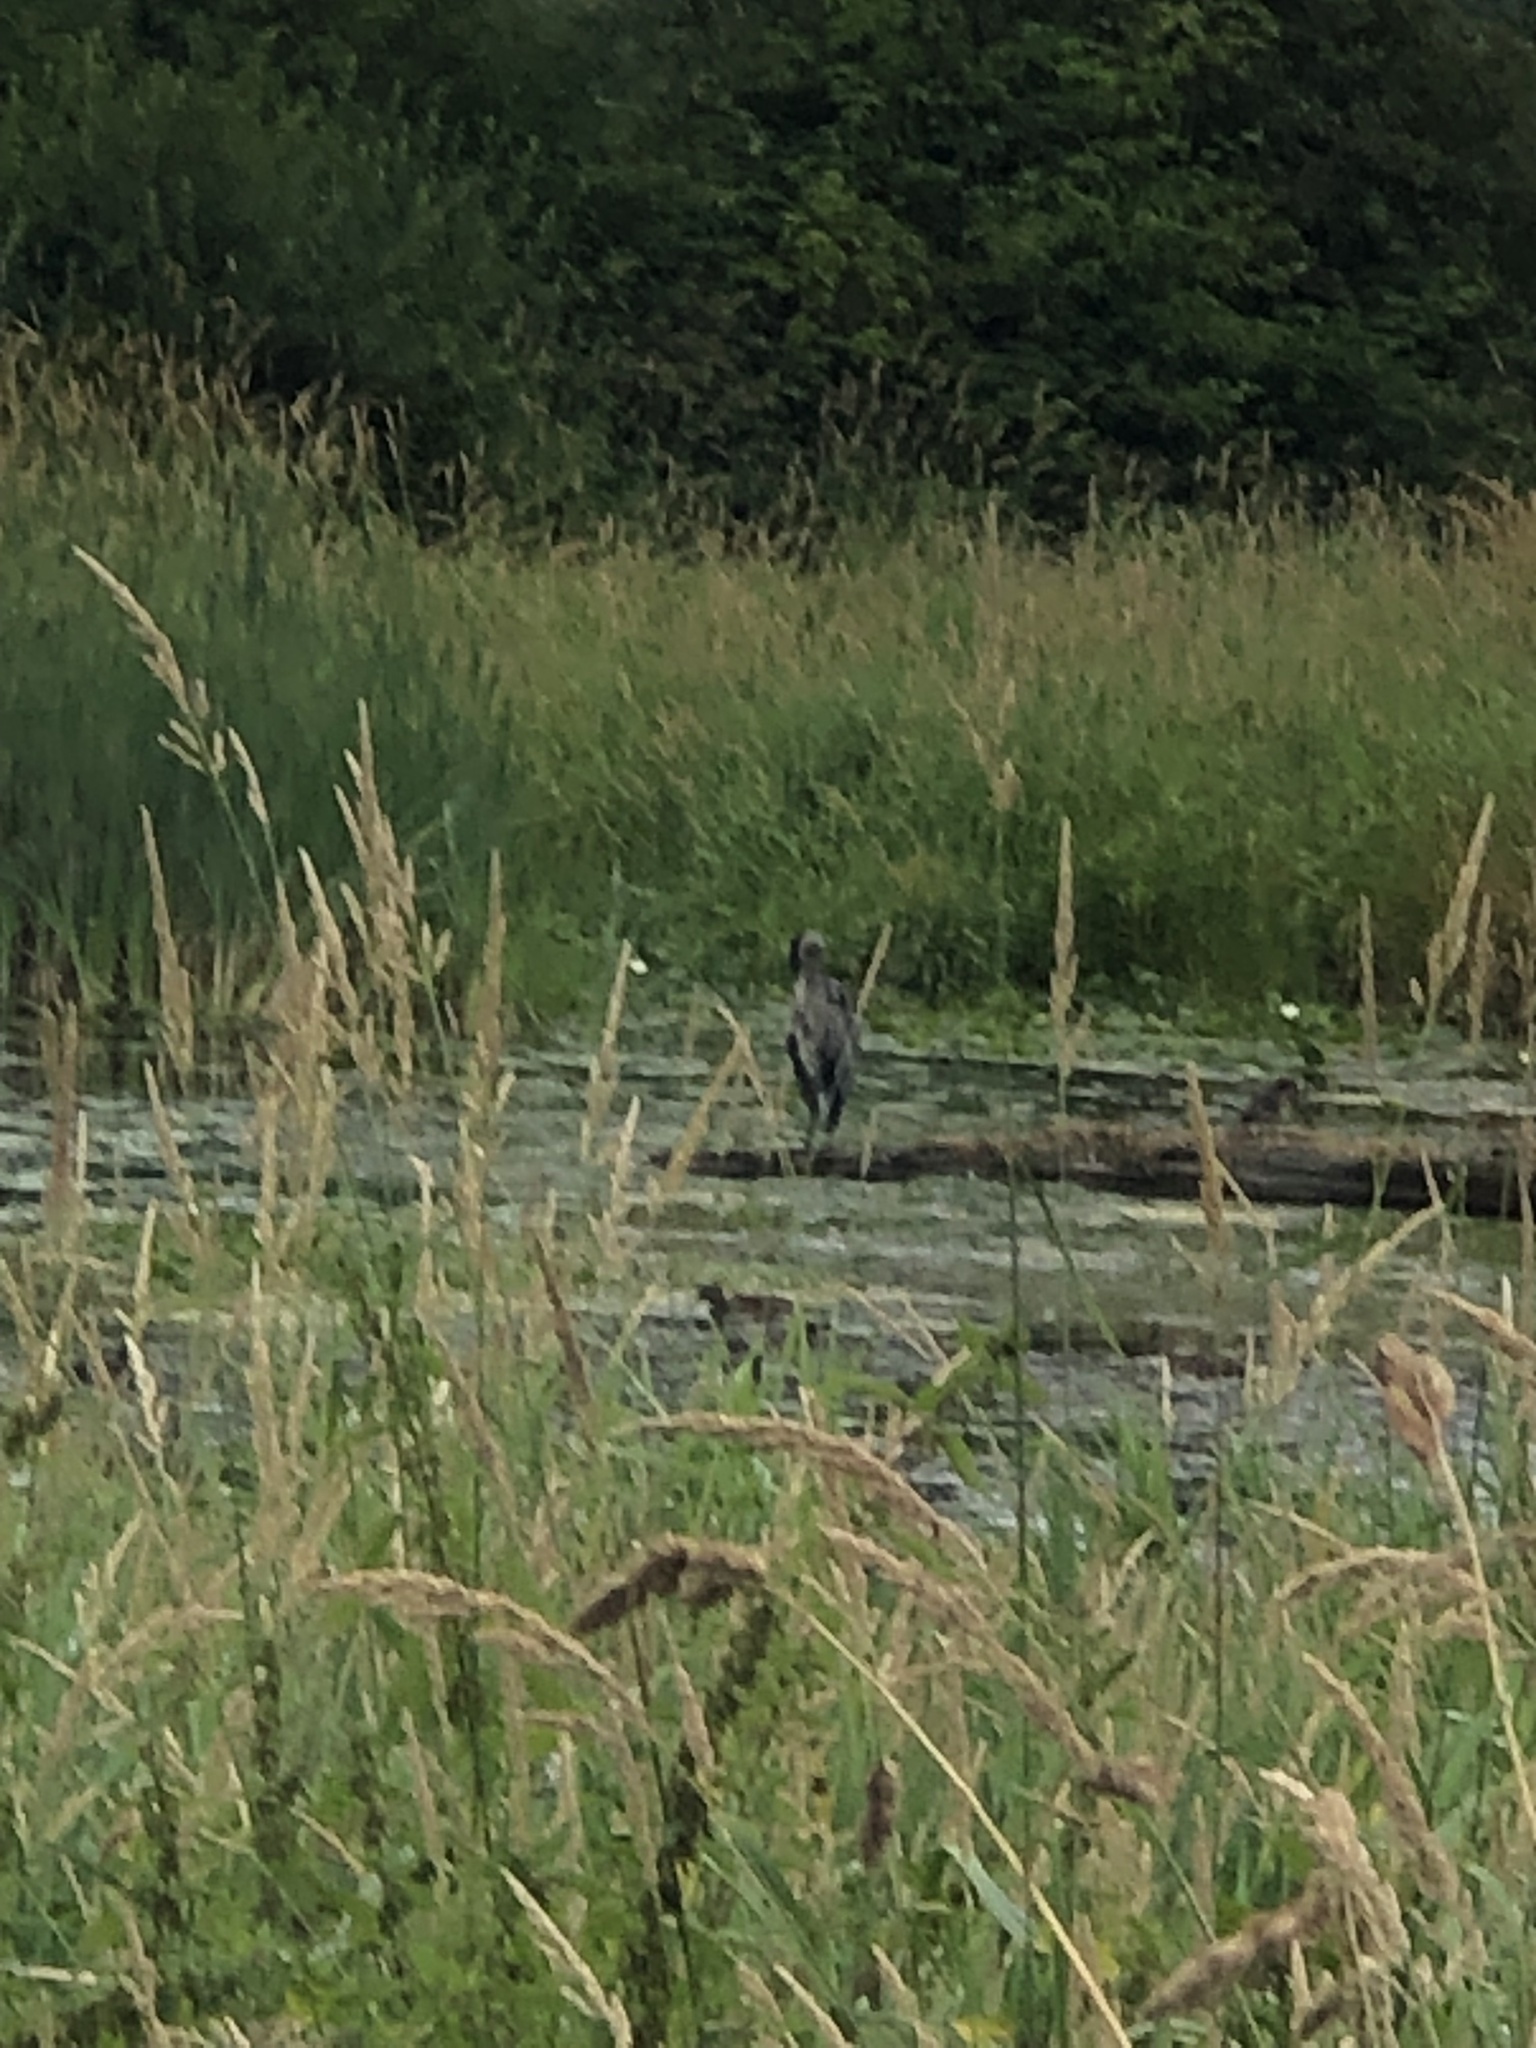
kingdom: Animalia
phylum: Chordata
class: Aves
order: Pelecaniformes
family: Ardeidae
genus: Ardea
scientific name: Ardea herodias
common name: Great blue heron
